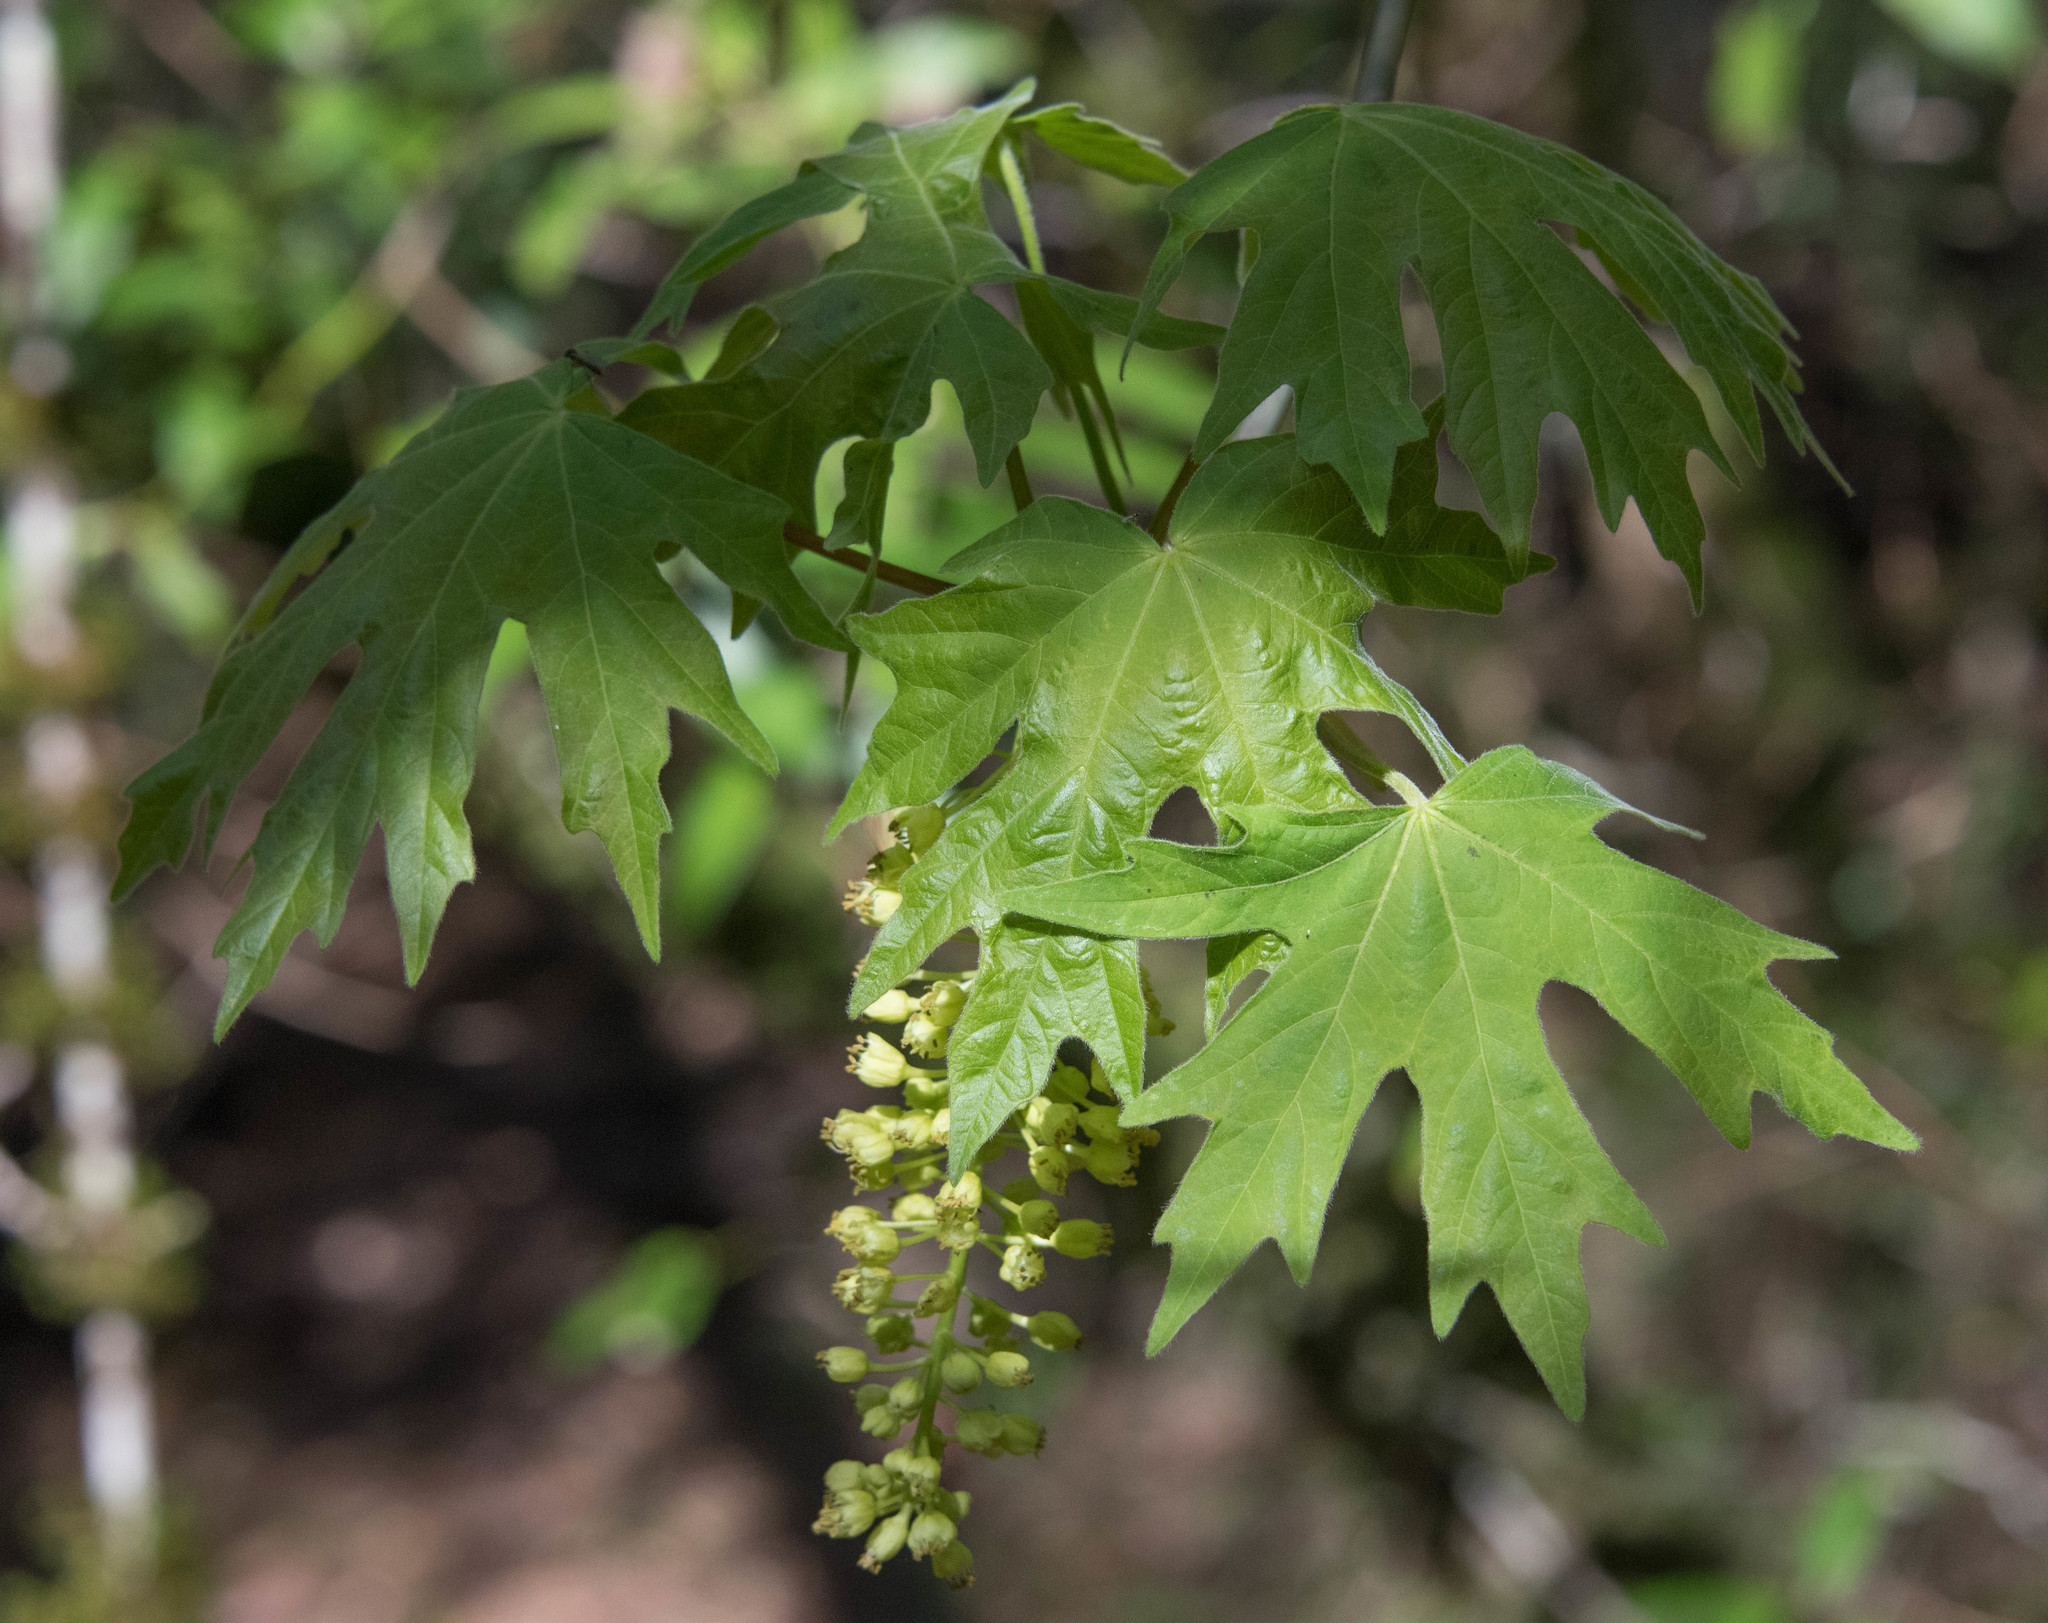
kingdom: Plantae
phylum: Tracheophyta
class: Magnoliopsida
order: Sapindales
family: Sapindaceae
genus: Acer
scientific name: Acer macrophyllum
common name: Oregon maple
